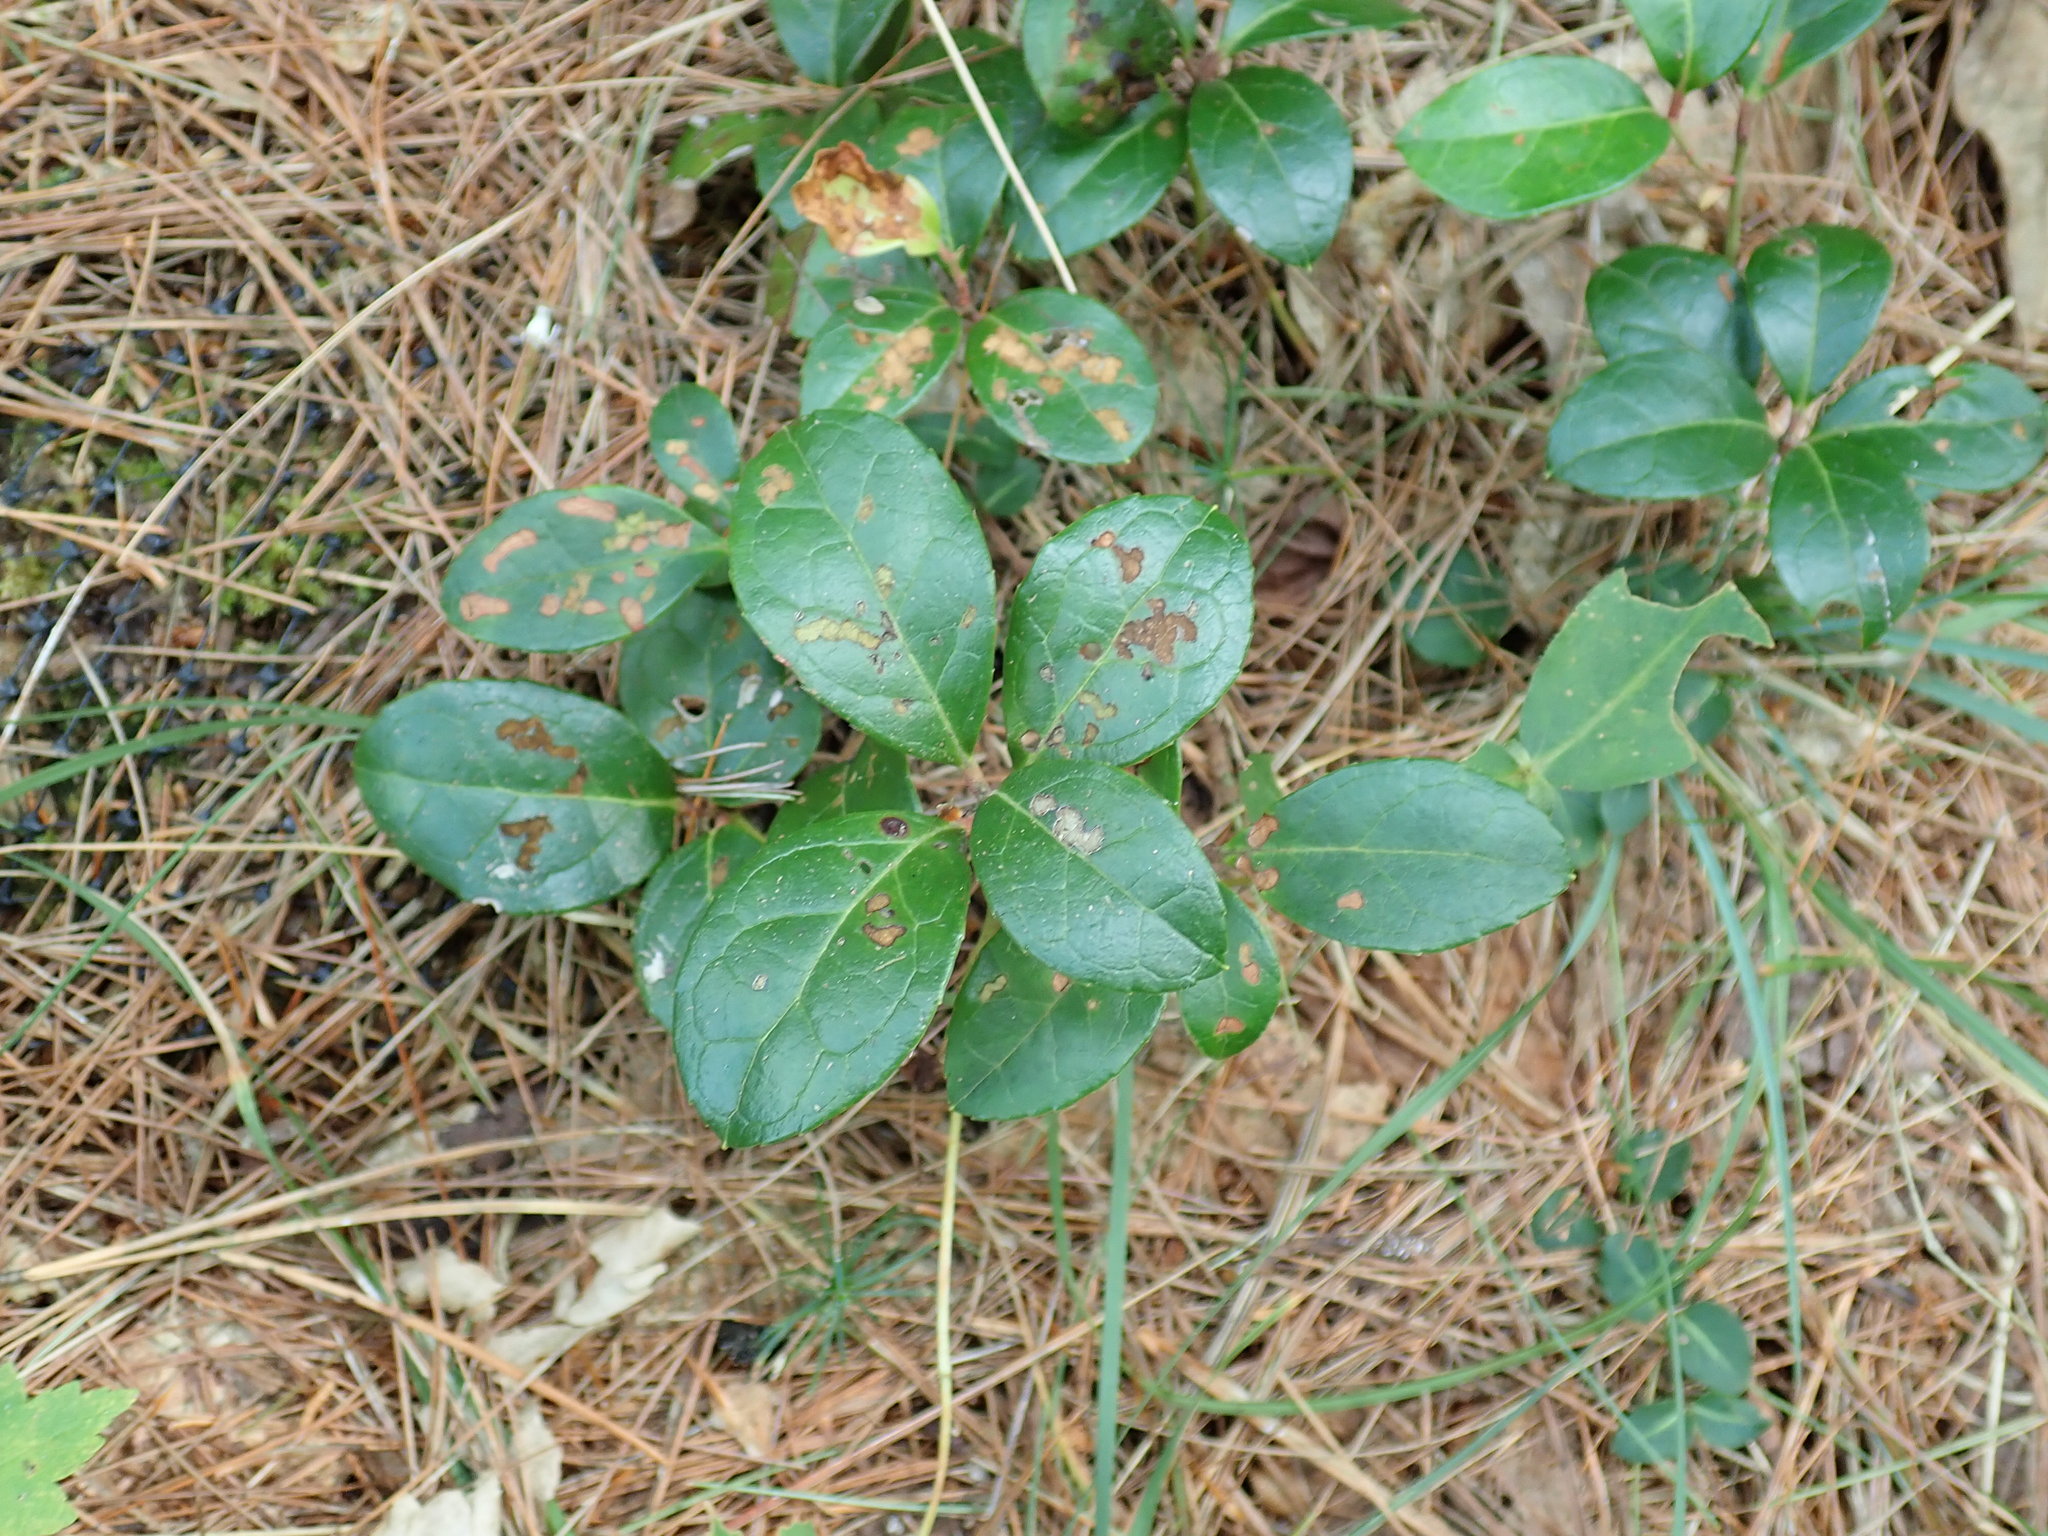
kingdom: Plantae
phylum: Tracheophyta
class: Magnoliopsida
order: Ericales
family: Ericaceae
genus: Gaultheria
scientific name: Gaultheria procumbens
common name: Checkerberry
